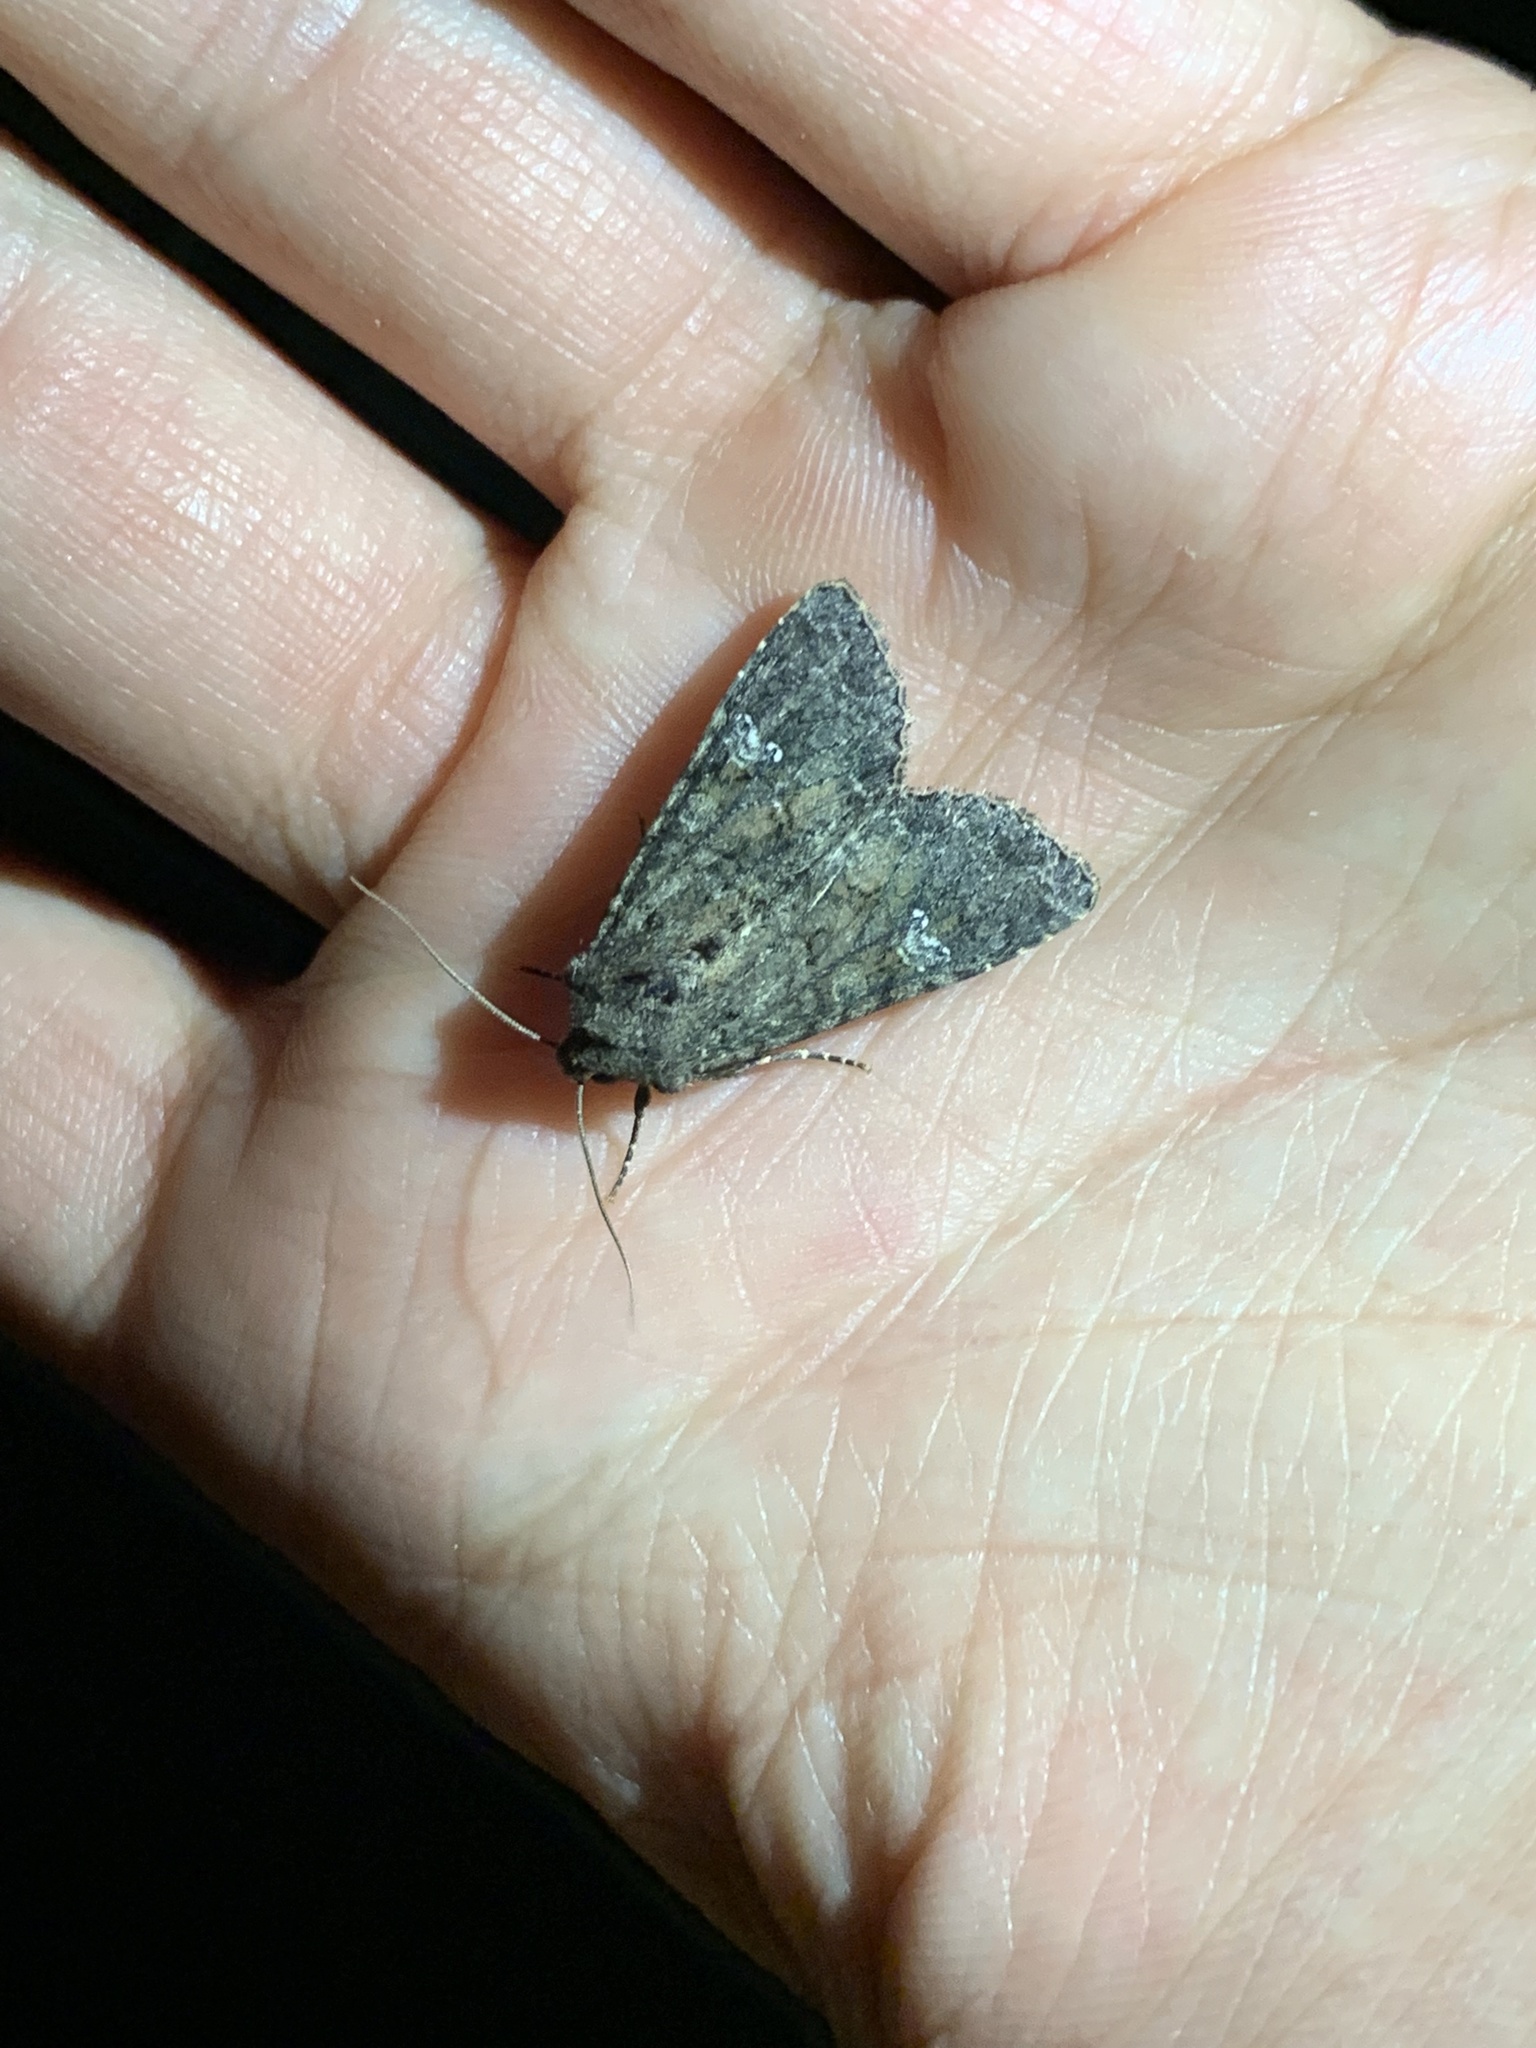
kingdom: Animalia
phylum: Arthropoda
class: Insecta
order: Lepidoptera
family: Noctuidae
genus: Mamestra
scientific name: Mamestra brassicae
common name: Cabbage moth
